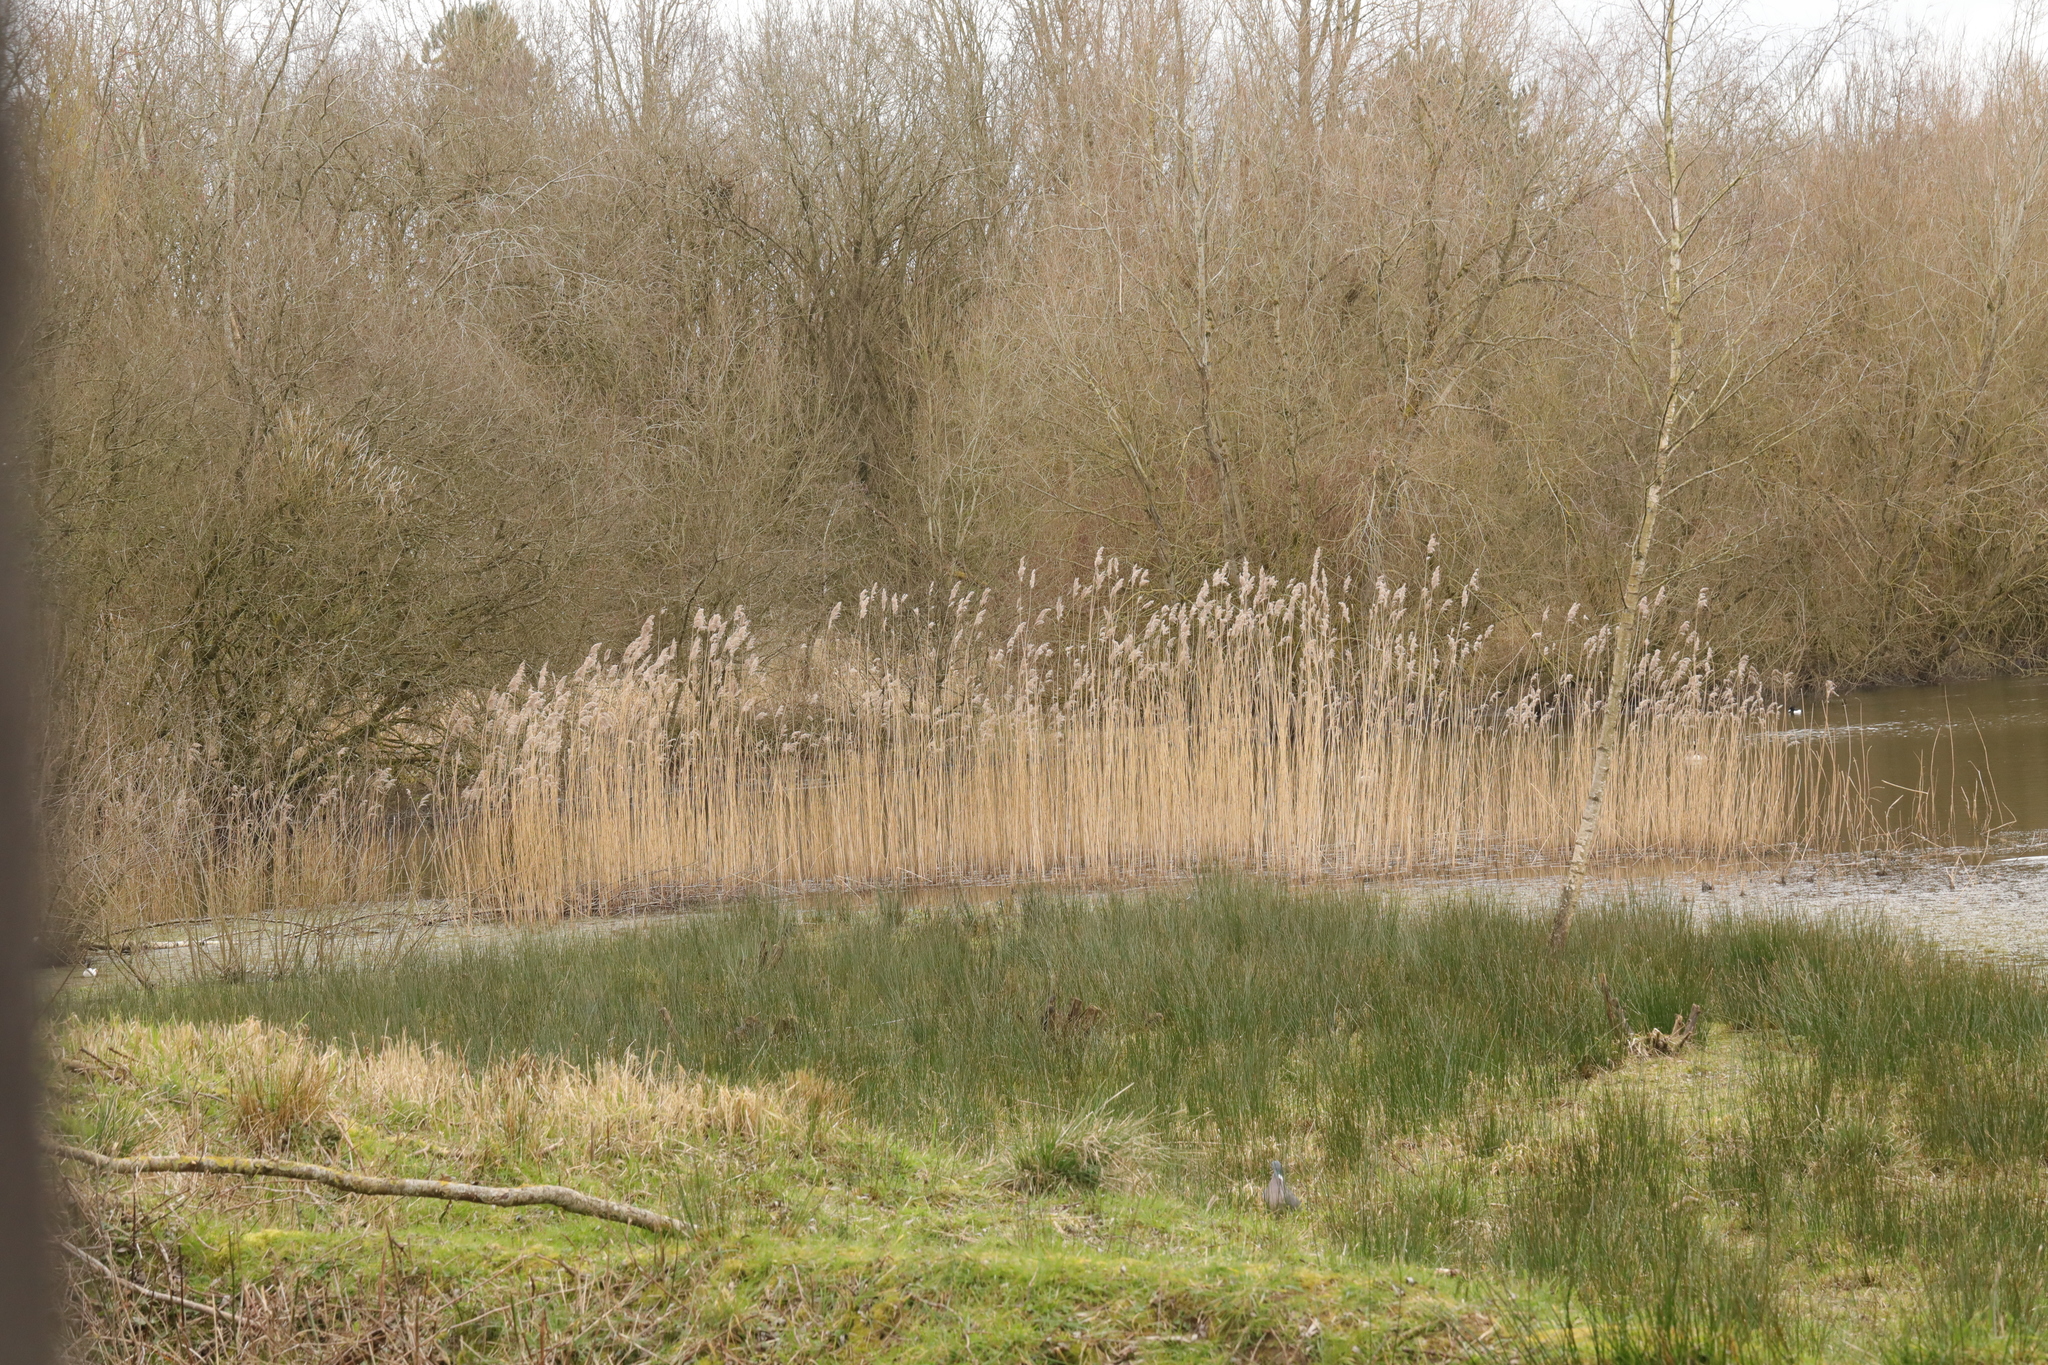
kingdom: Plantae
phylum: Tracheophyta
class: Liliopsida
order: Poales
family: Poaceae
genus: Phragmites
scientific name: Phragmites australis
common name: Common reed
